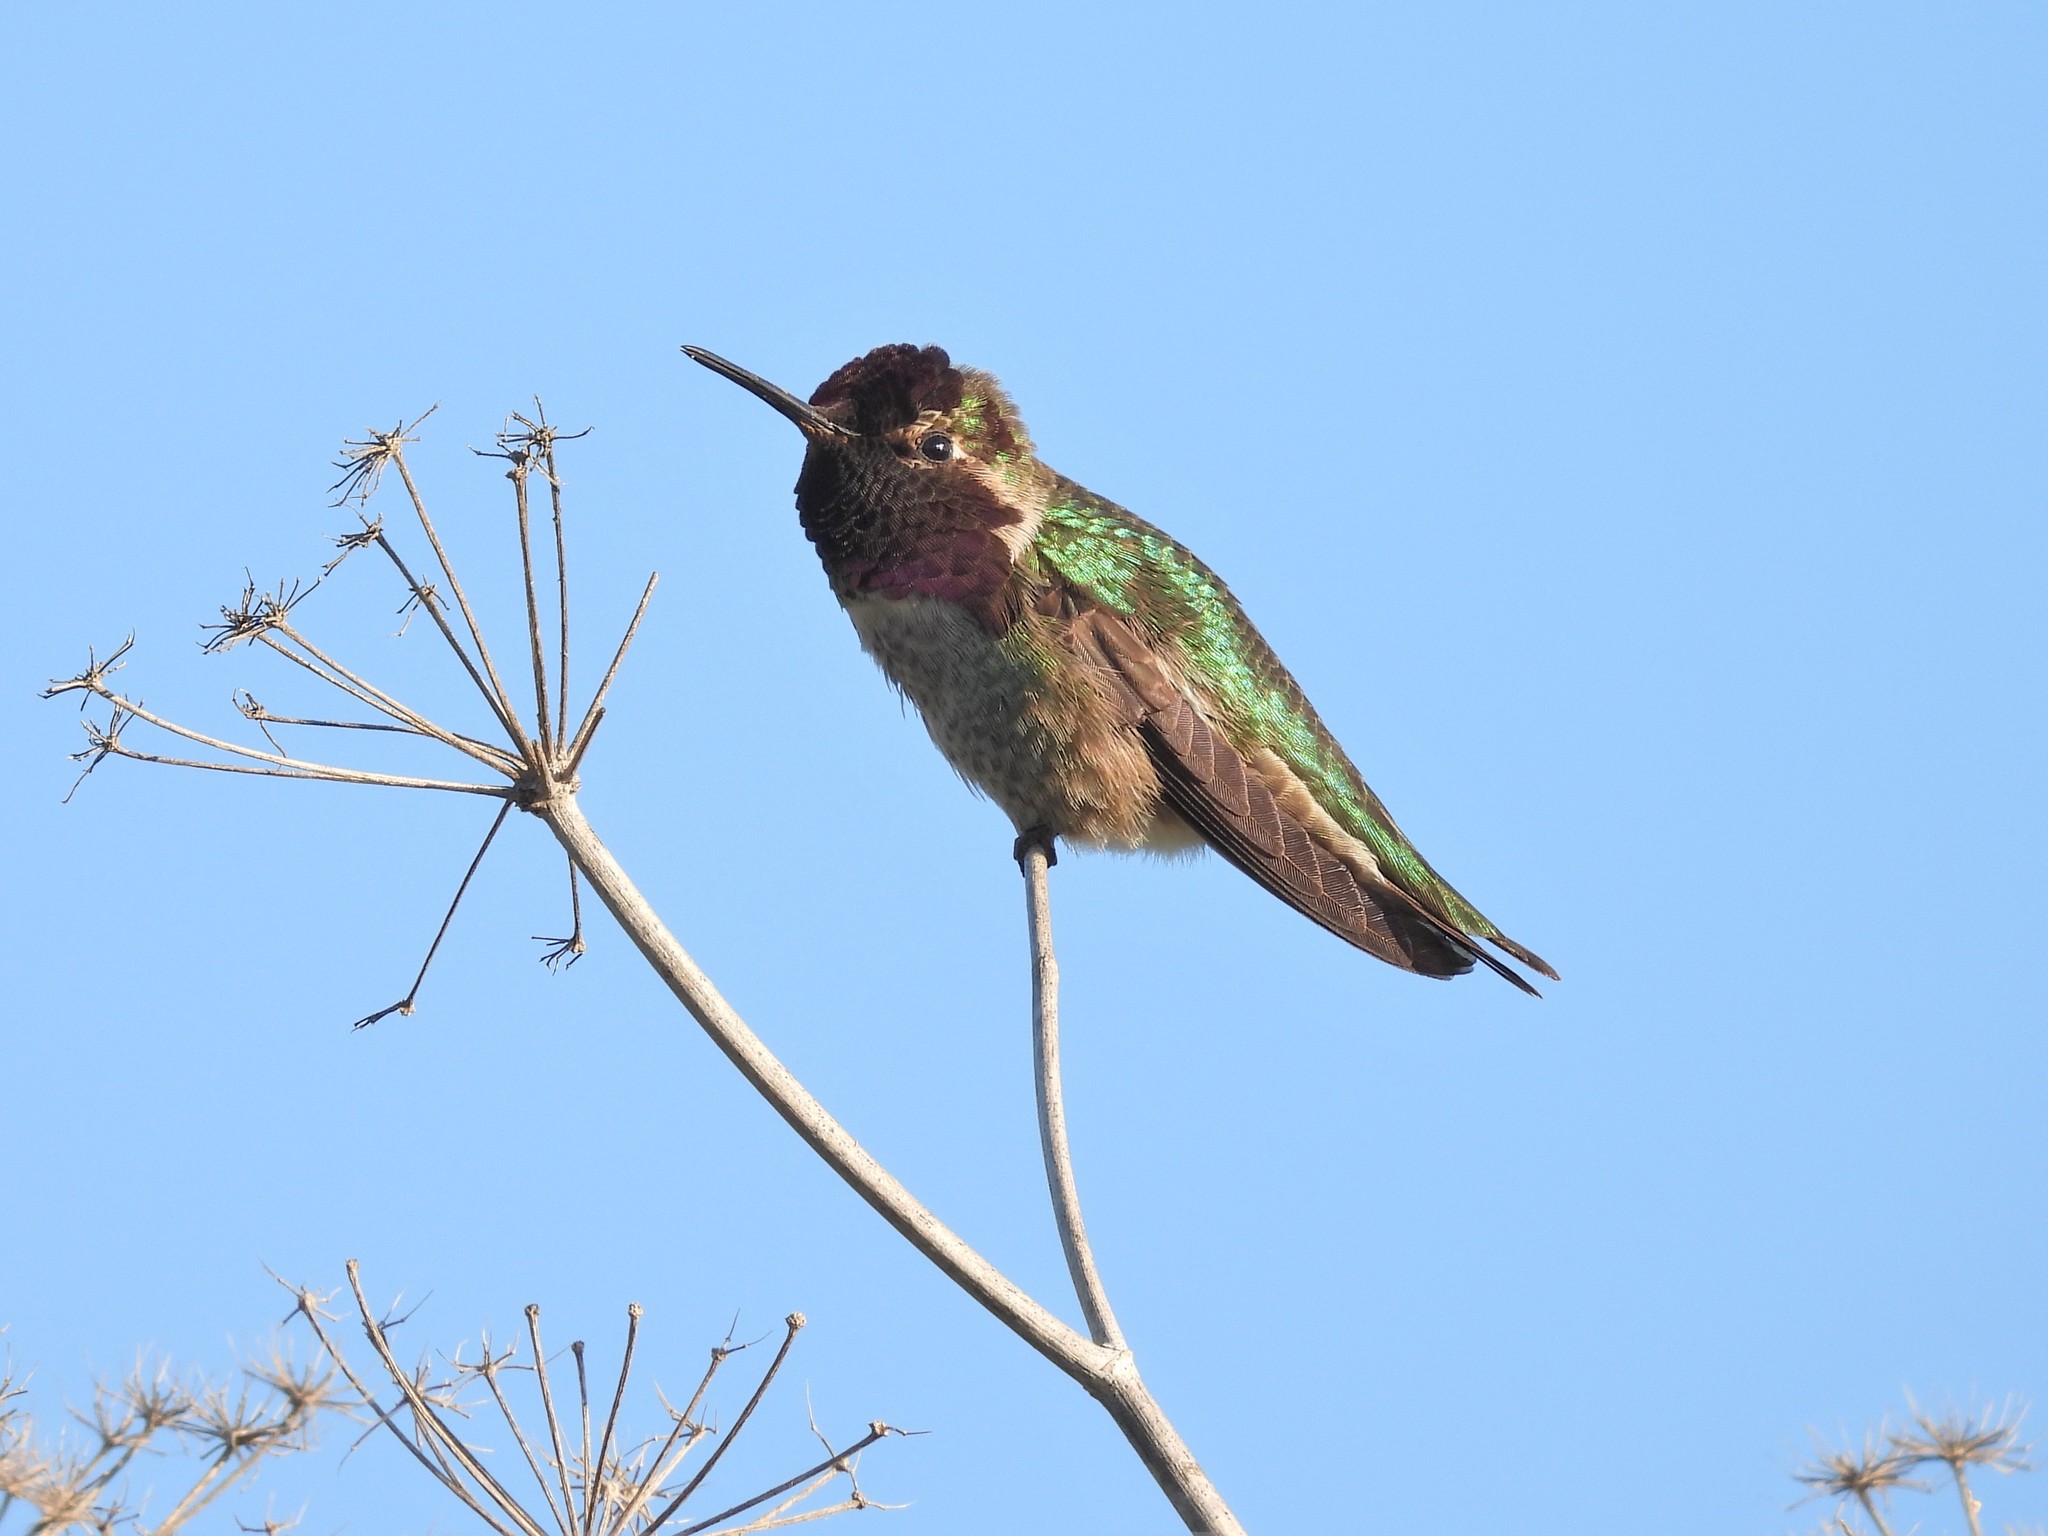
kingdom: Animalia
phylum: Chordata
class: Aves
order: Apodiformes
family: Trochilidae
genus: Calypte
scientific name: Calypte anna
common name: Anna's hummingbird
